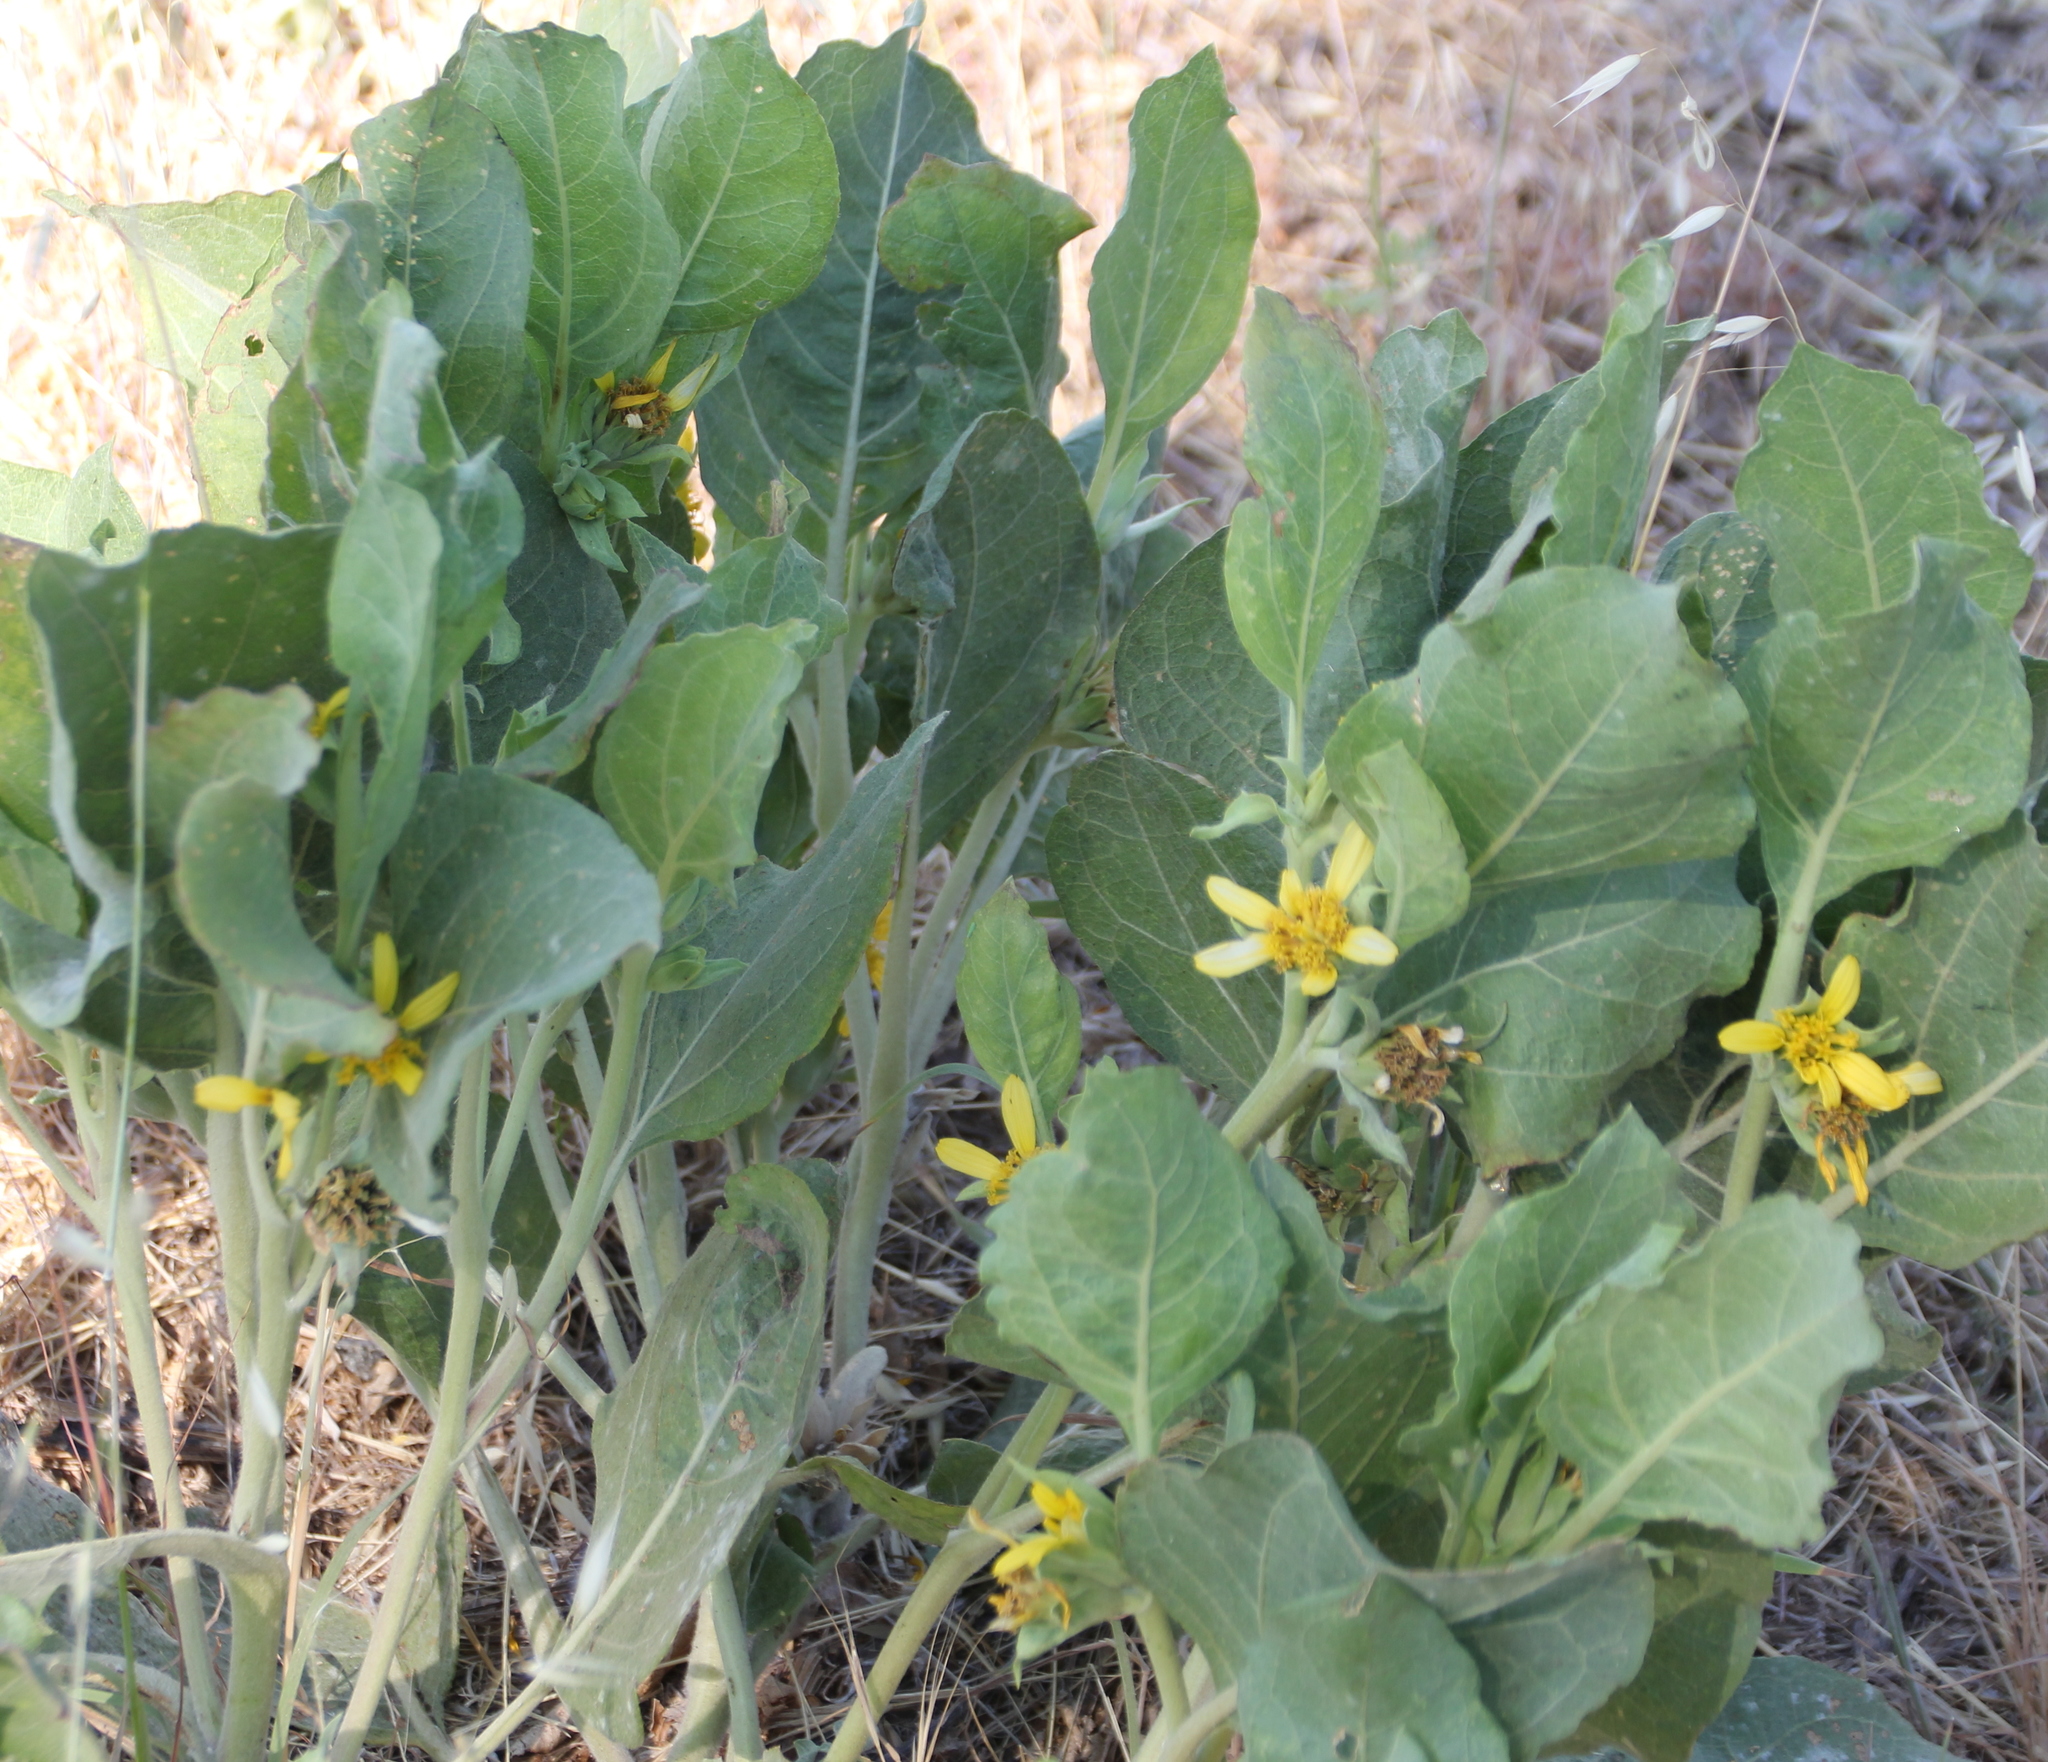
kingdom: Plantae
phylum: Tracheophyta
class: Magnoliopsida
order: Asterales
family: Asteraceae
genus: Agnorhiza
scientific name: Agnorhiza ovata
